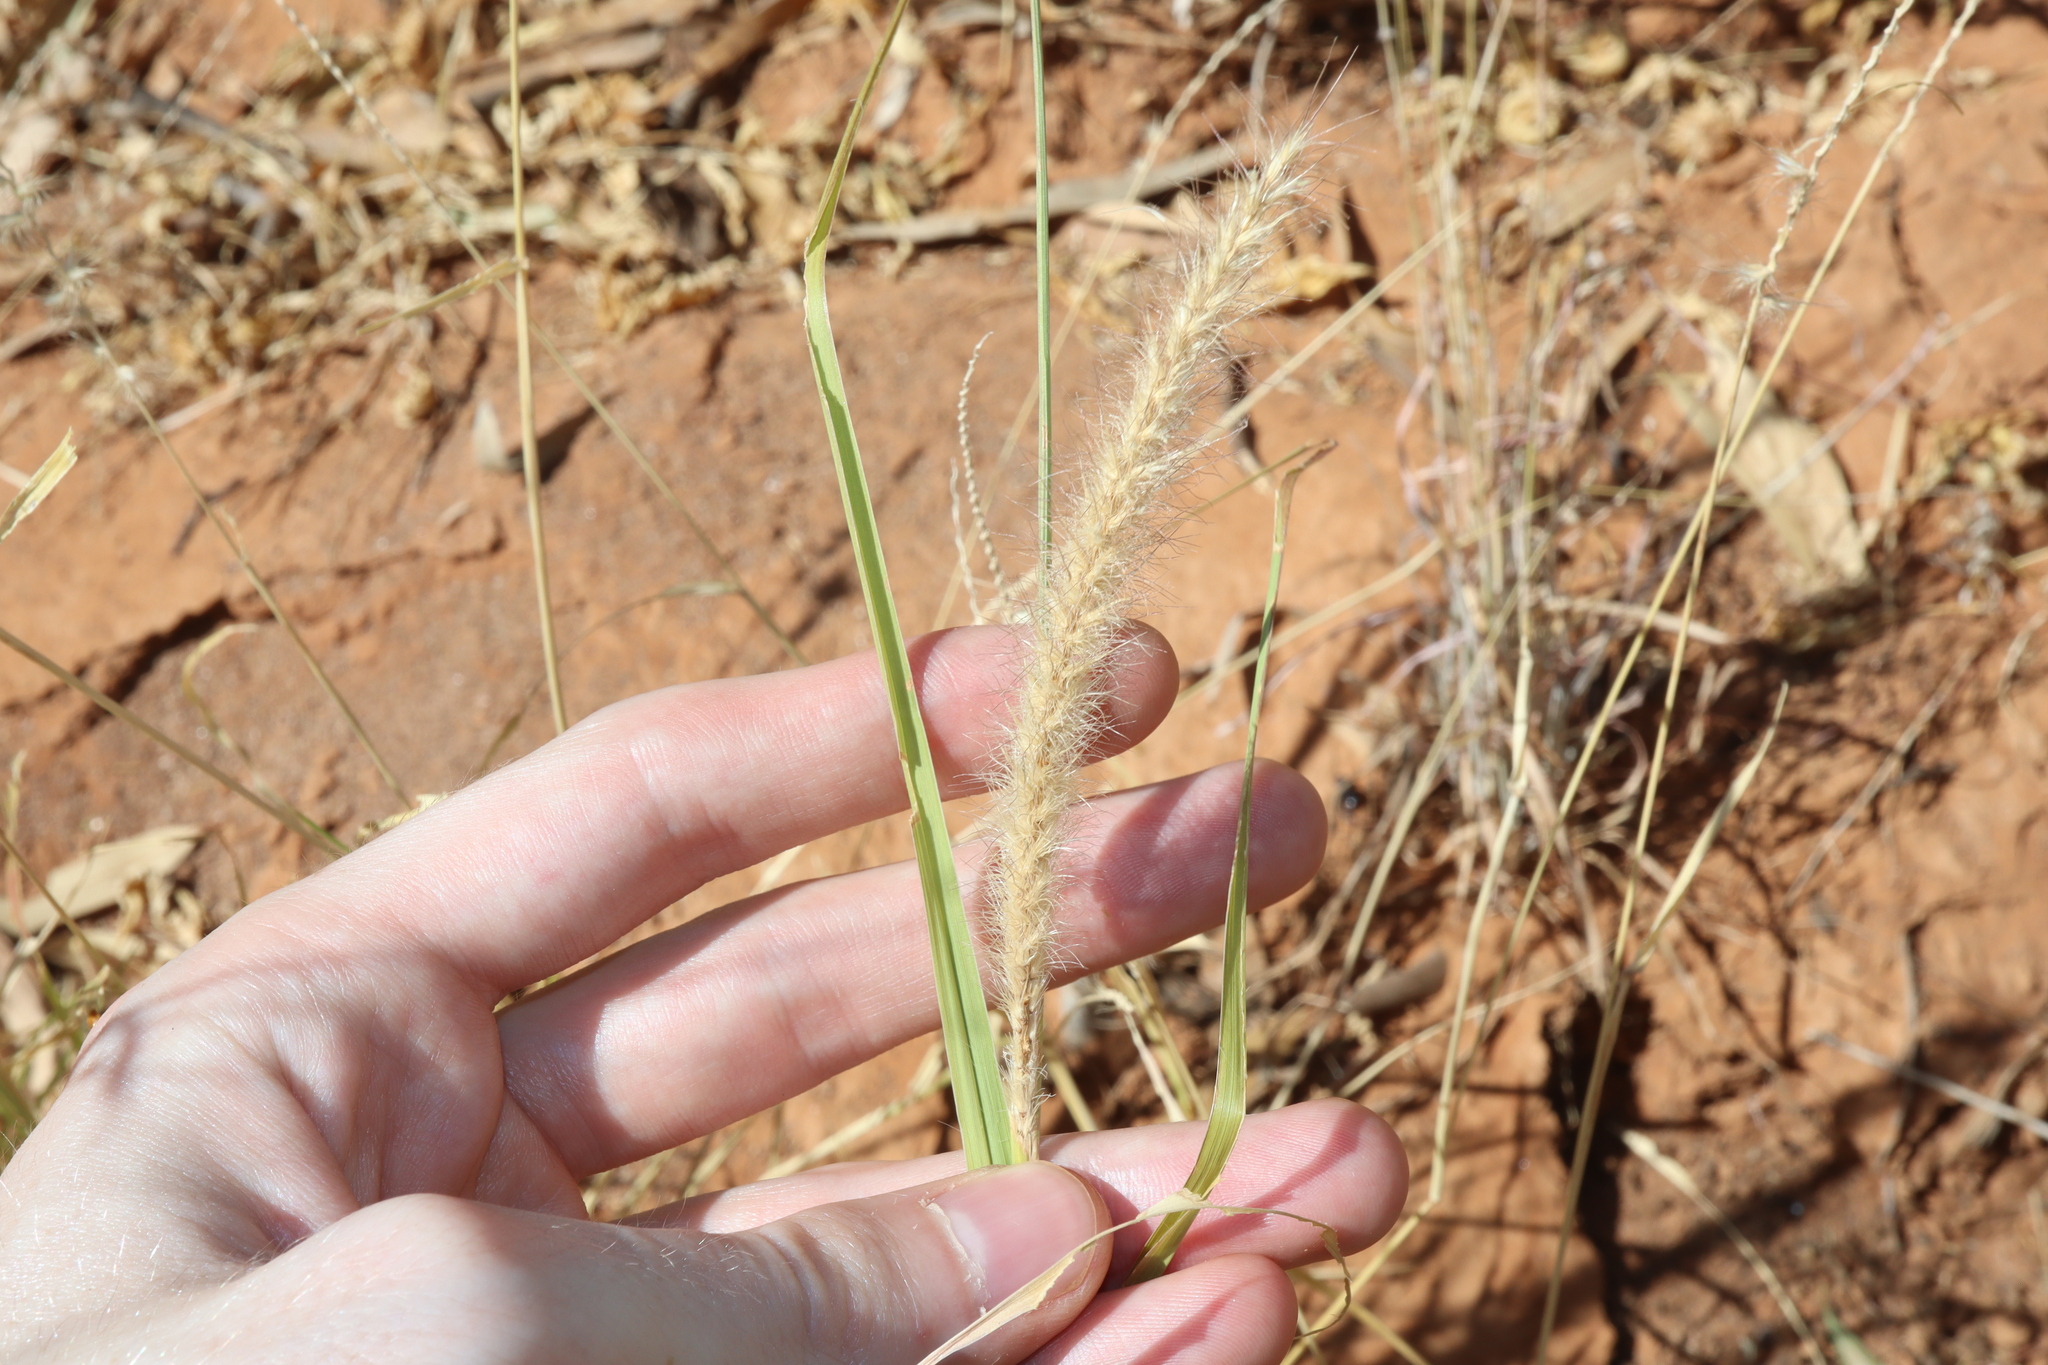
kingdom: Plantae
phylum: Tracheophyta
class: Liliopsida
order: Poales
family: Poaceae
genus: Cenchrus
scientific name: Cenchrus ciliaris
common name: Buffelgrass
